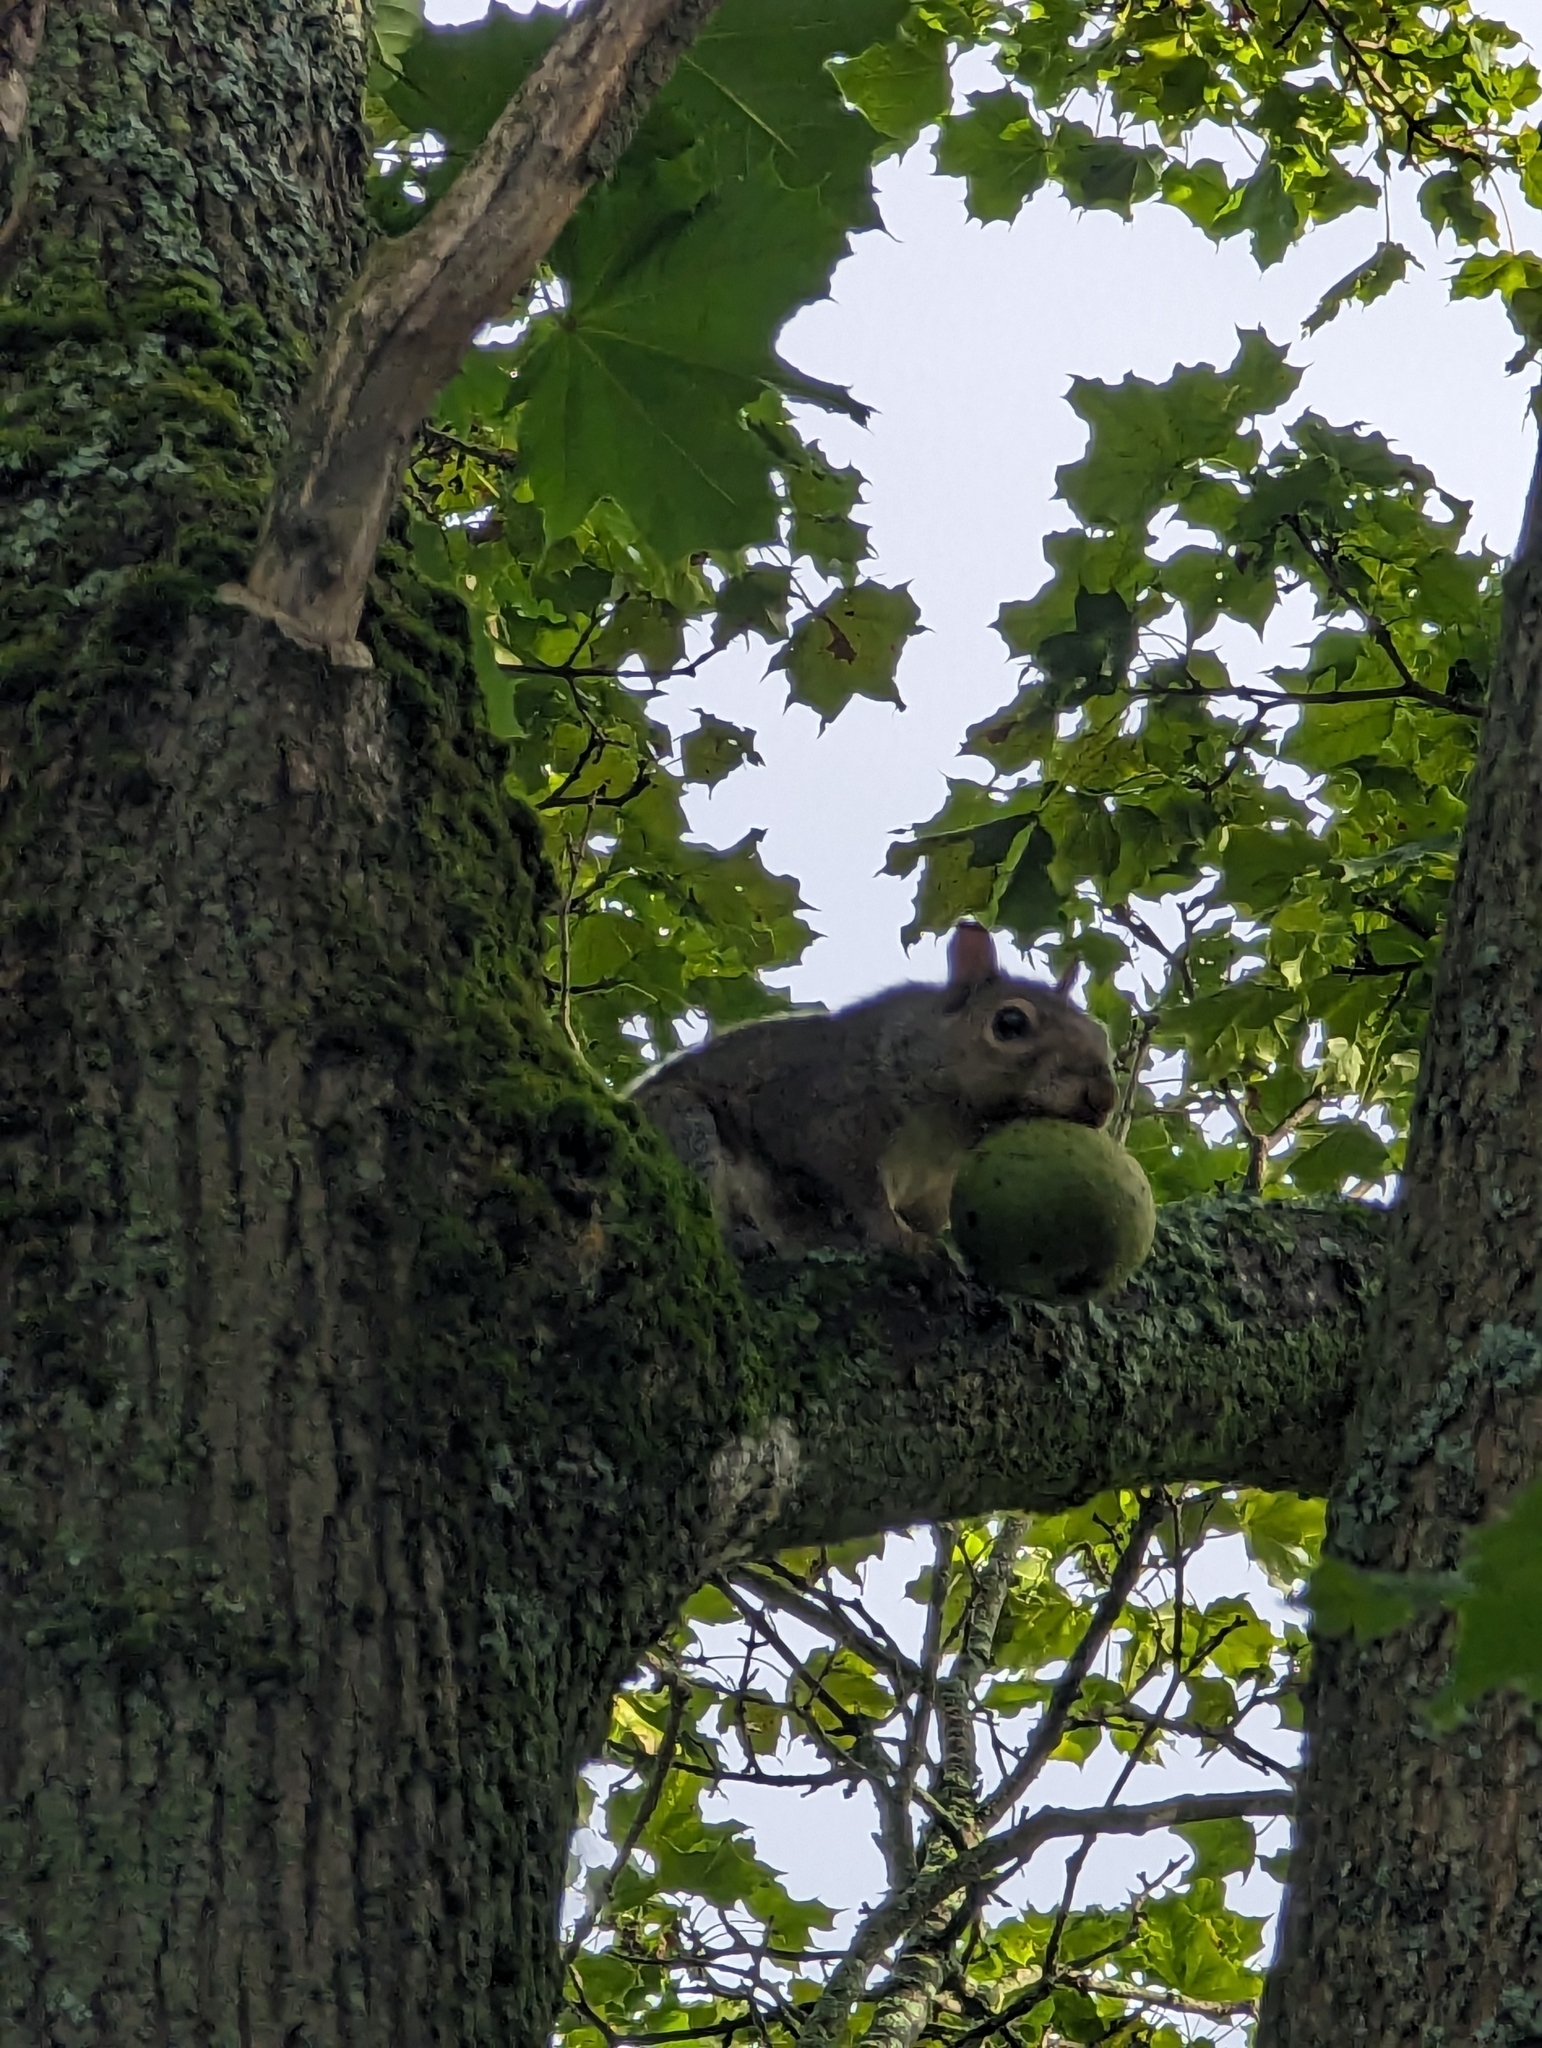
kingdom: Animalia
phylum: Chordata
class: Mammalia
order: Rodentia
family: Sciuridae
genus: Sciurus
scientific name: Sciurus carolinensis
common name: Eastern gray squirrel
